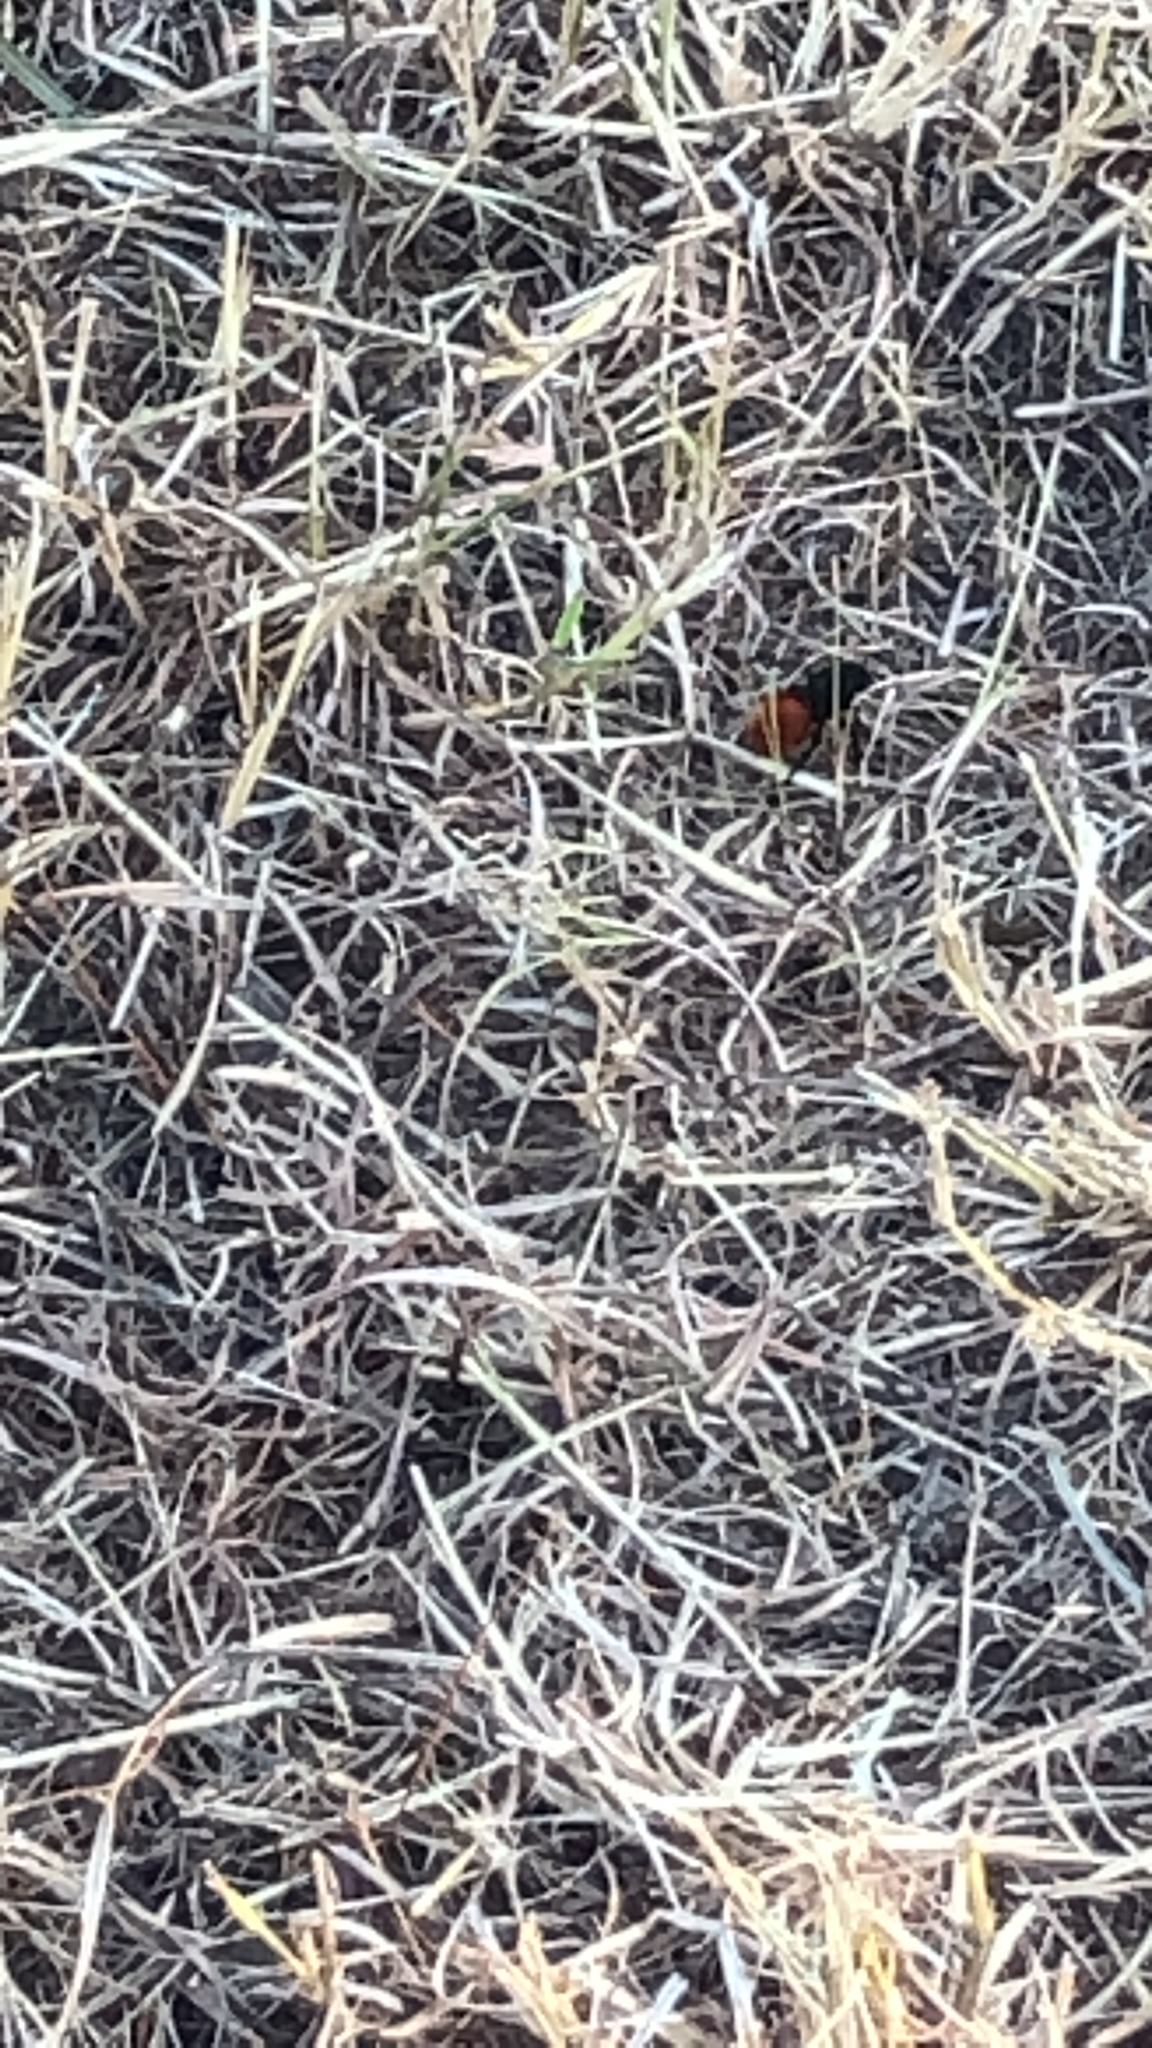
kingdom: Animalia
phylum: Arthropoda
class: Insecta
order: Hymenoptera
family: Mutillidae
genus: Dasymutilla
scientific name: Dasymutilla
